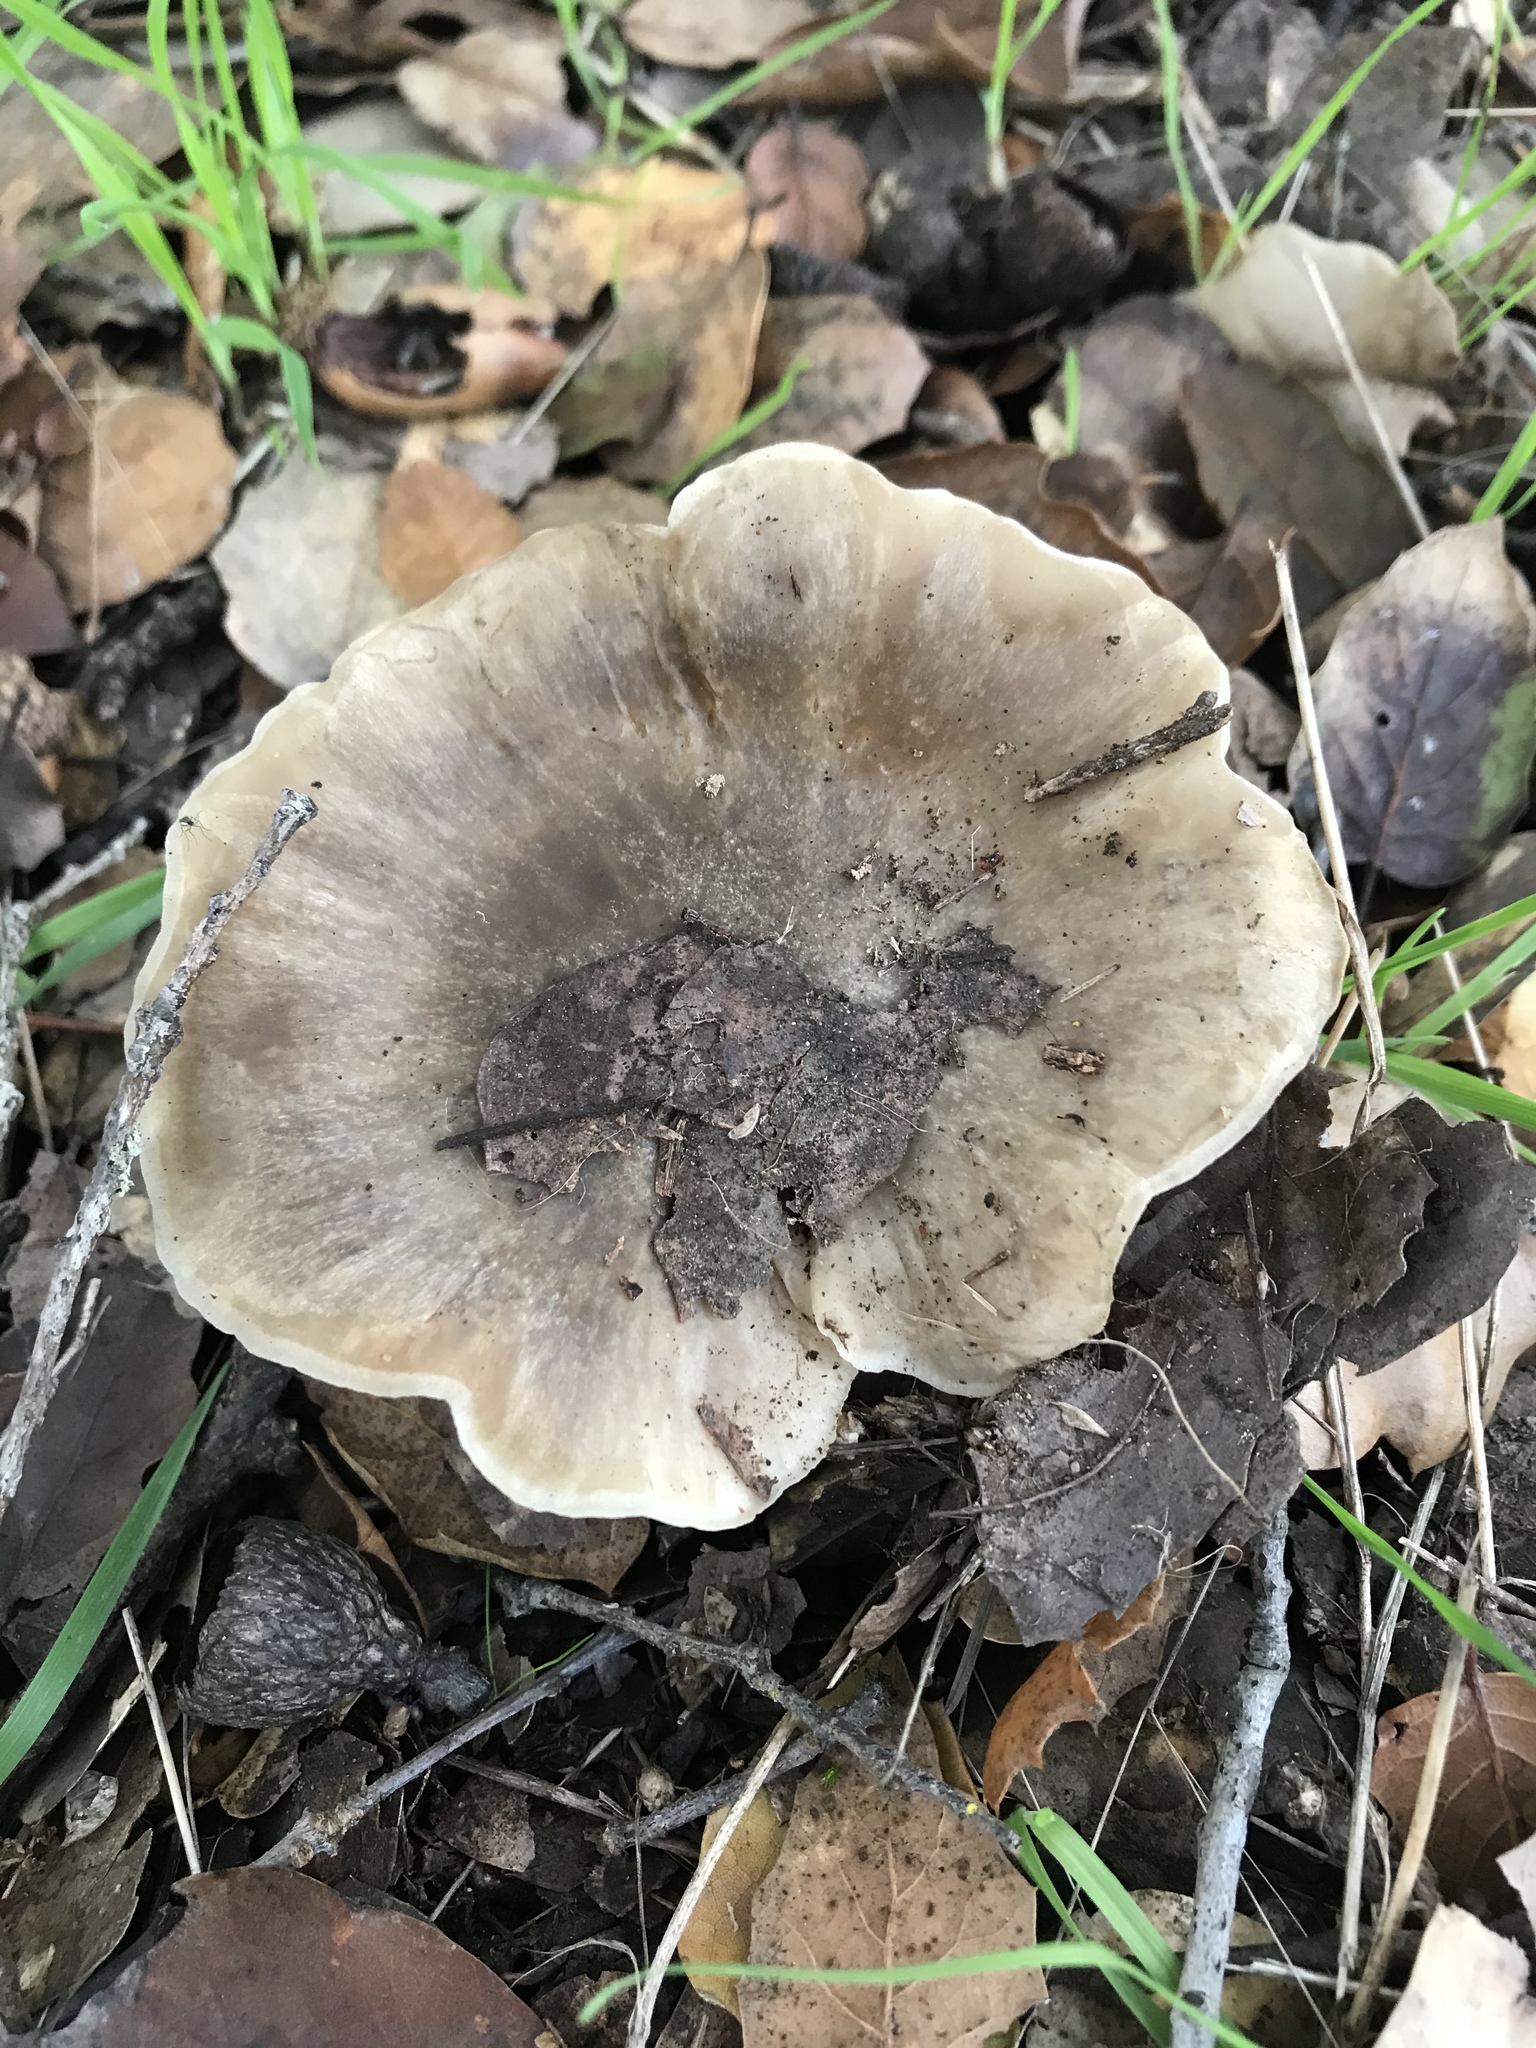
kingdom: Fungi
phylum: Basidiomycota
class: Agaricomycetes
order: Agaricales
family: Entolomataceae
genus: Entoloma
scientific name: Entoloma ferruginans
